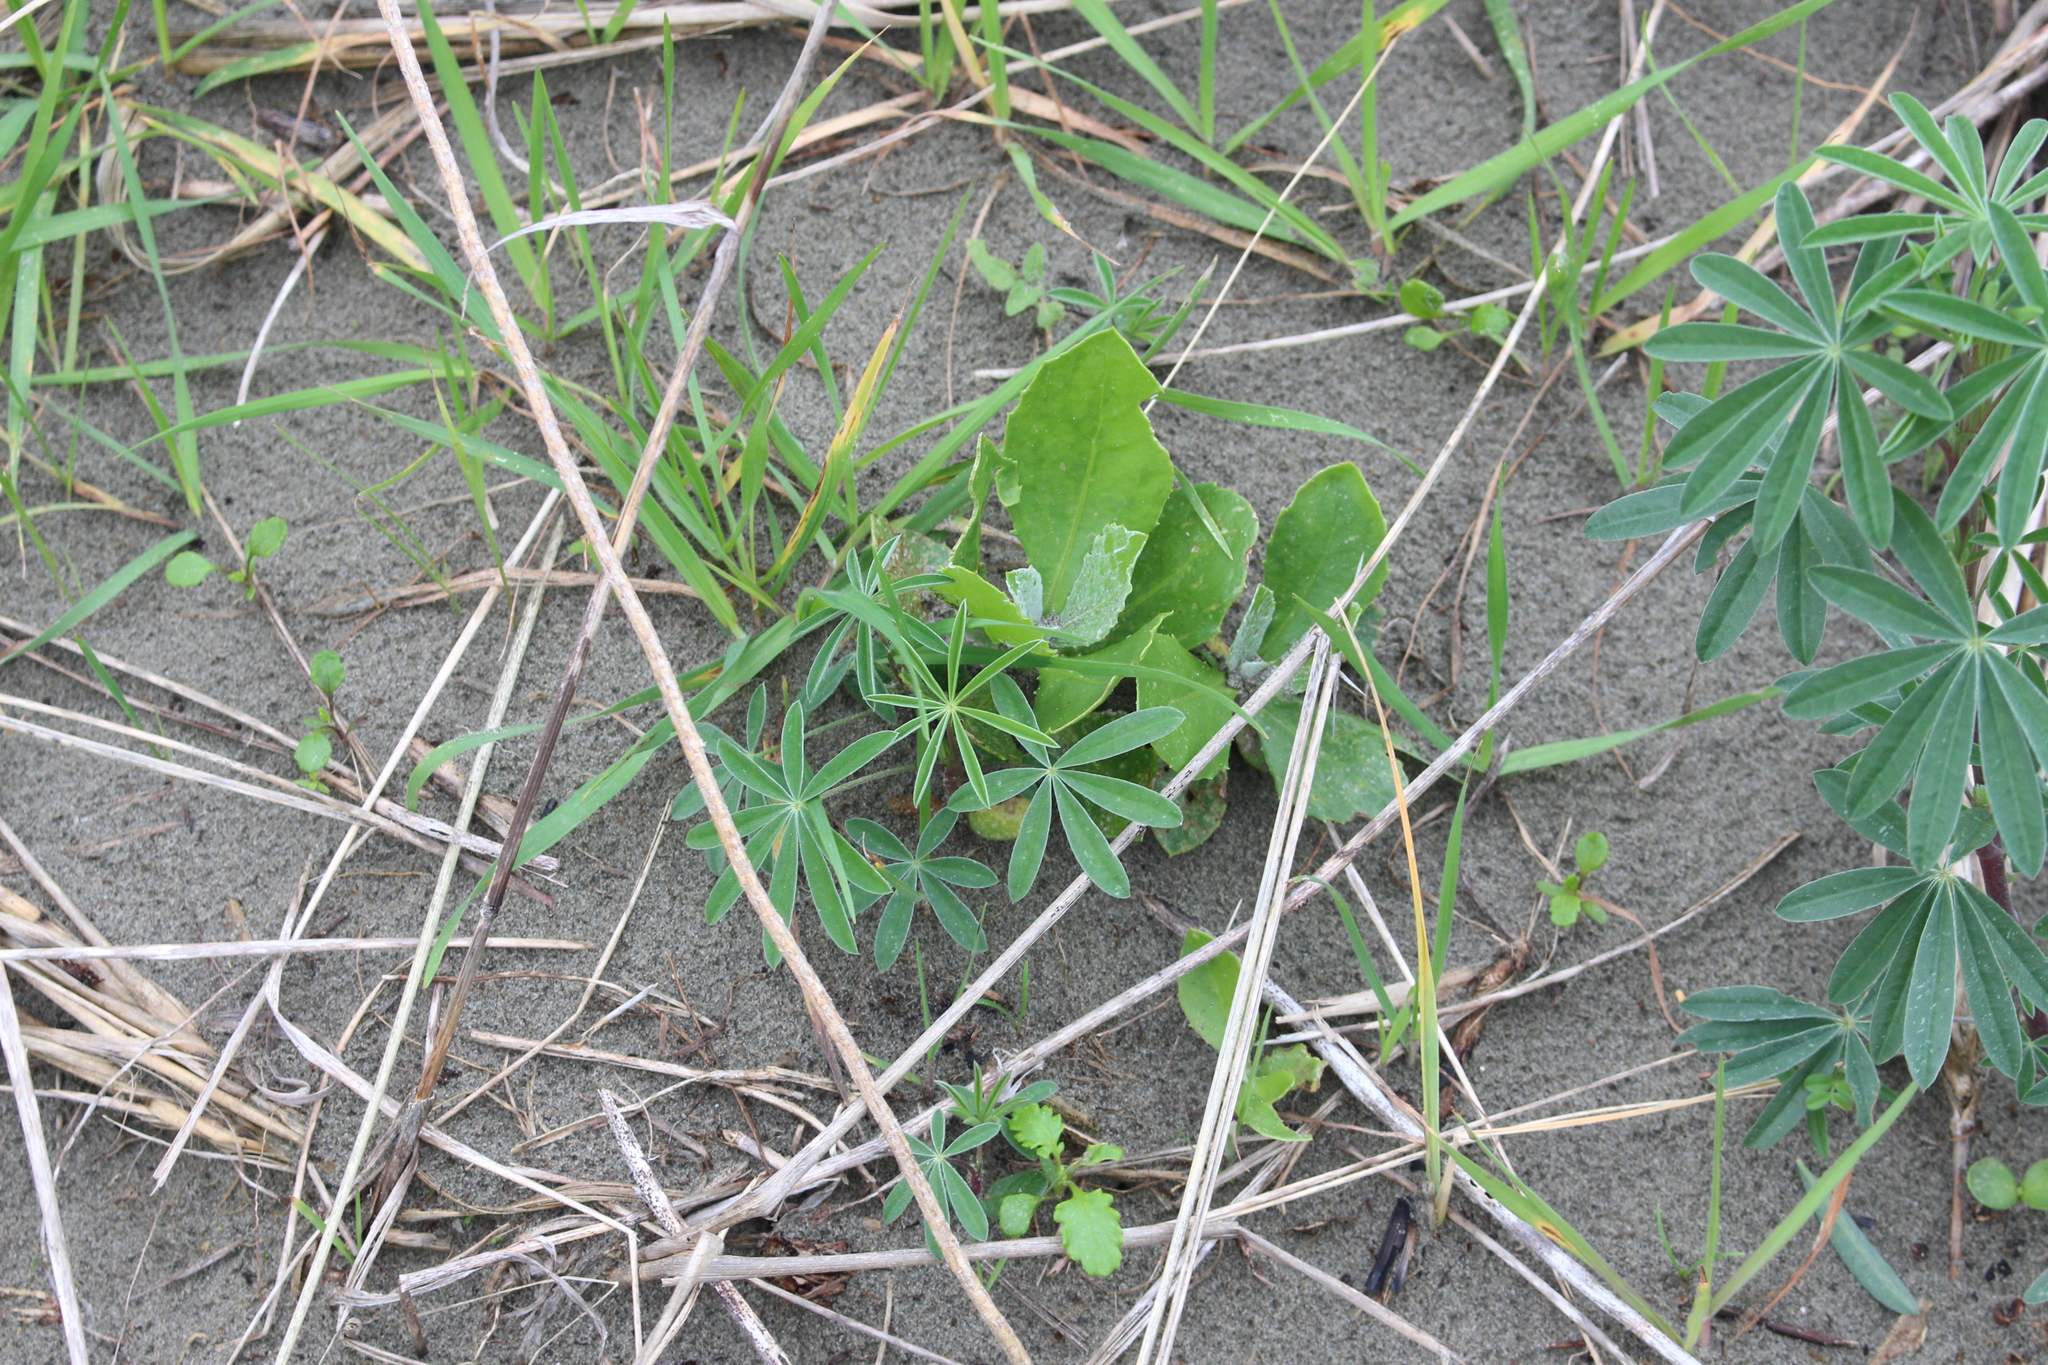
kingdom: Plantae
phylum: Tracheophyta
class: Magnoliopsida
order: Asterales
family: Asteraceae
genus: Osteospermum
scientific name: Osteospermum moniliferum
